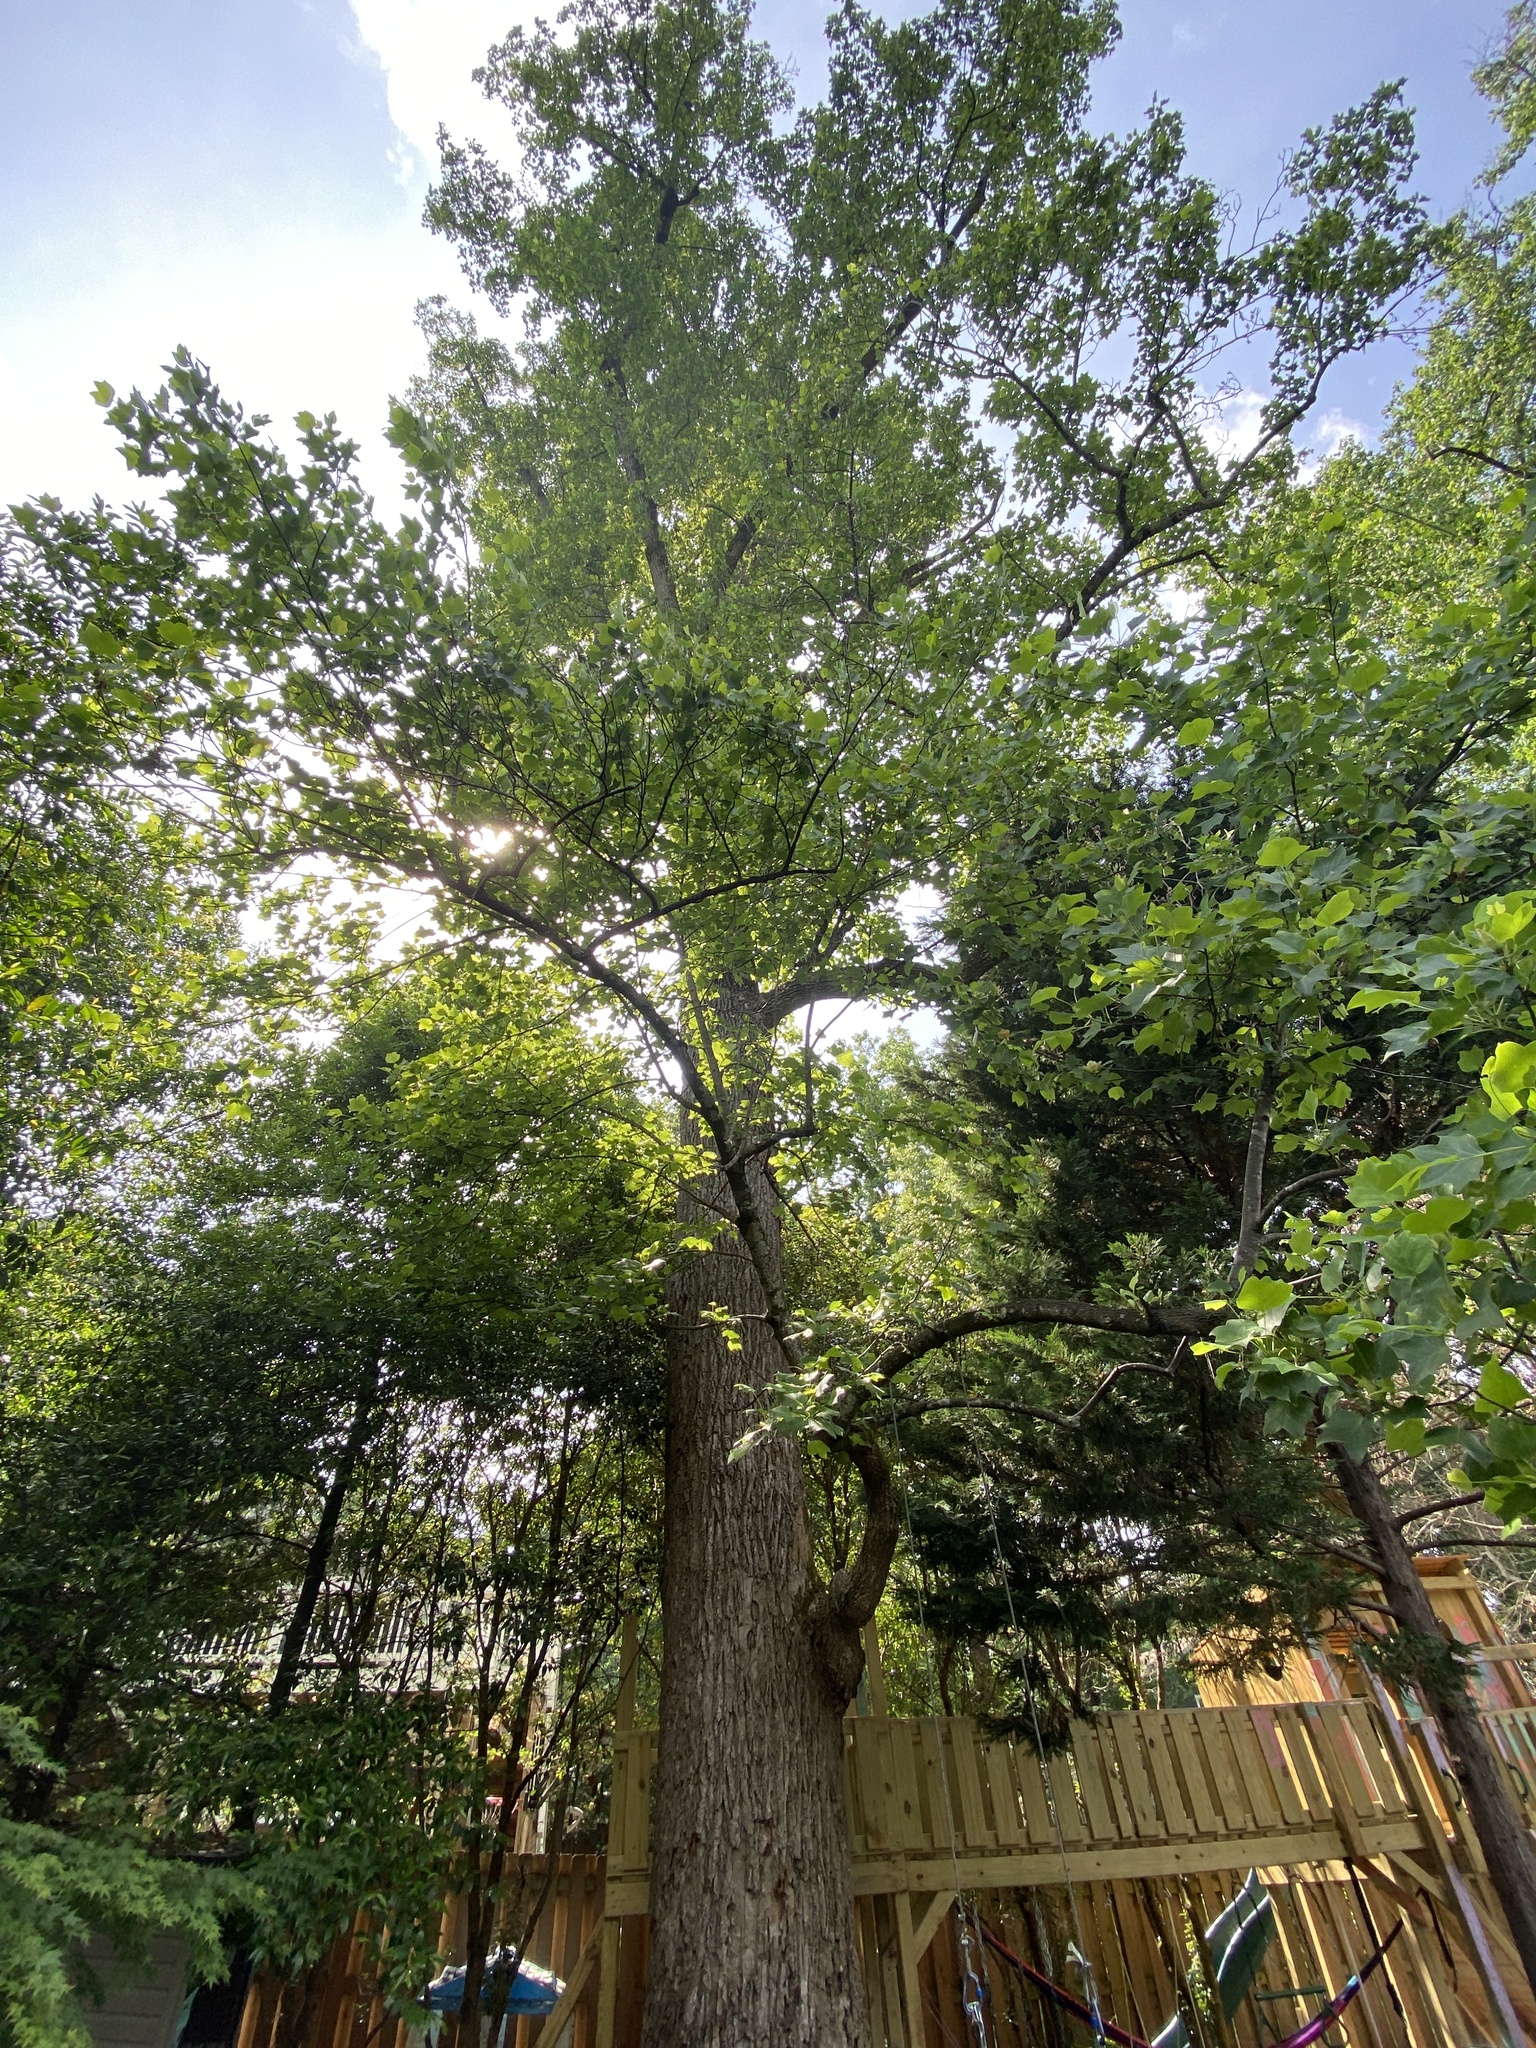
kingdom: Plantae
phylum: Tracheophyta
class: Magnoliopsida
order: Magnoliales
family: Magnoliaceae
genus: Liriodendron
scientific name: Liriodendron tulipifera
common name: Tulip tree
